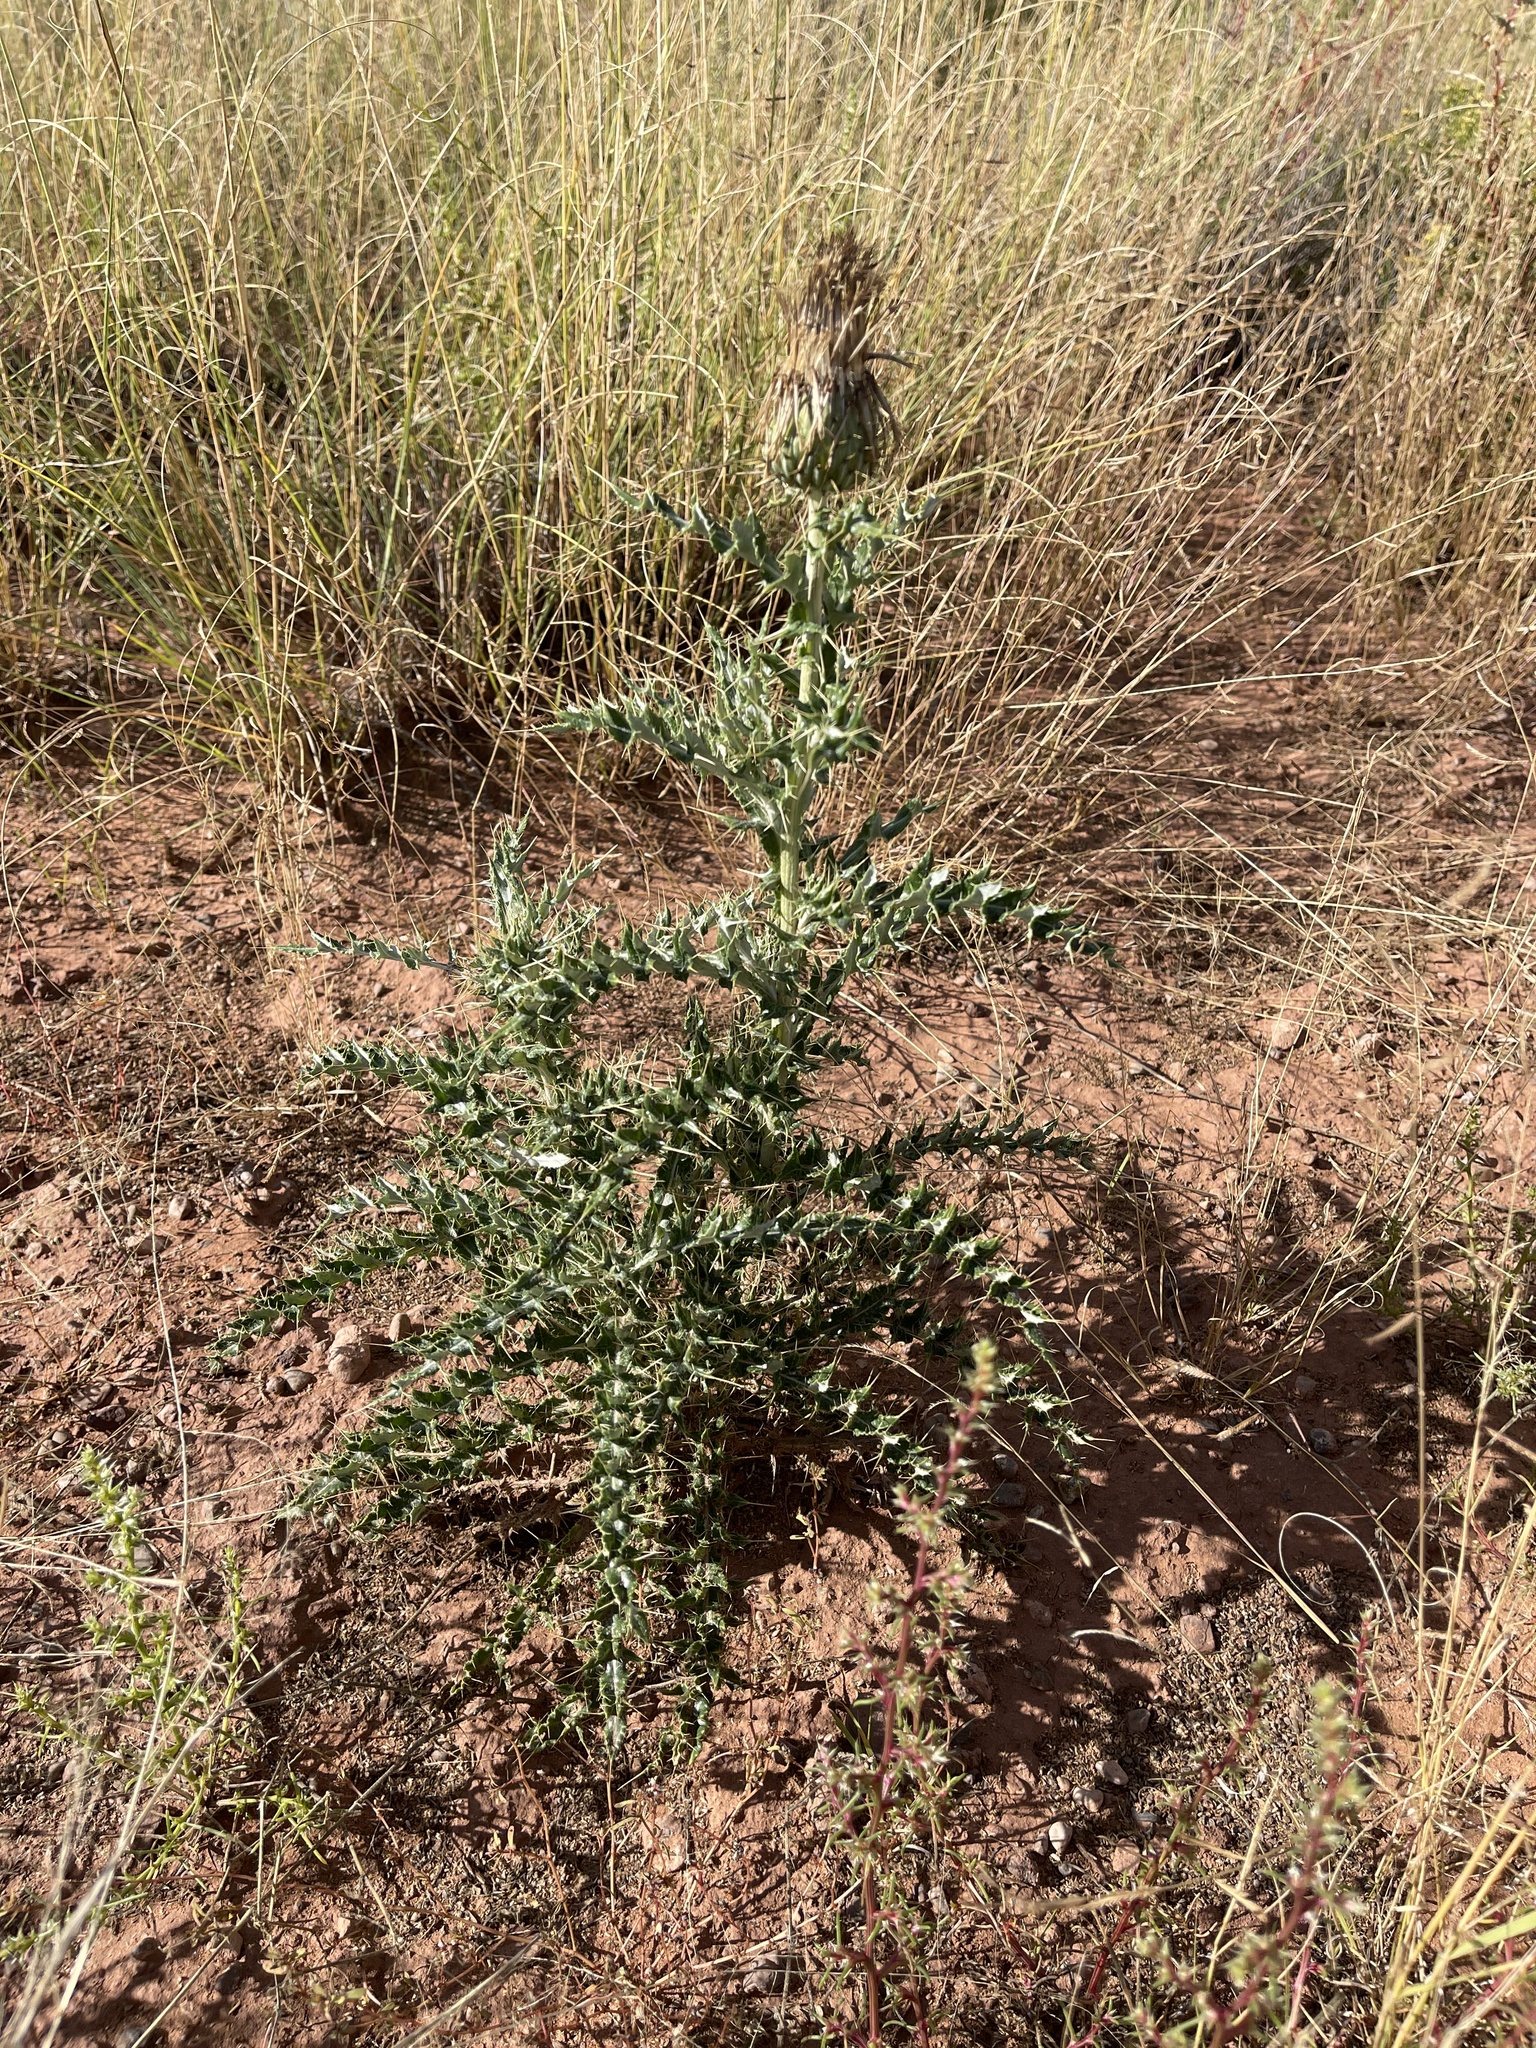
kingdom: Plantae
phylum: Tracheophyta
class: Magnoliopsida
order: Asterales
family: Asteraceae
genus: Cirsium
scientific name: Cirsium ochrocentrum
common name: Yellow-spine thistle
